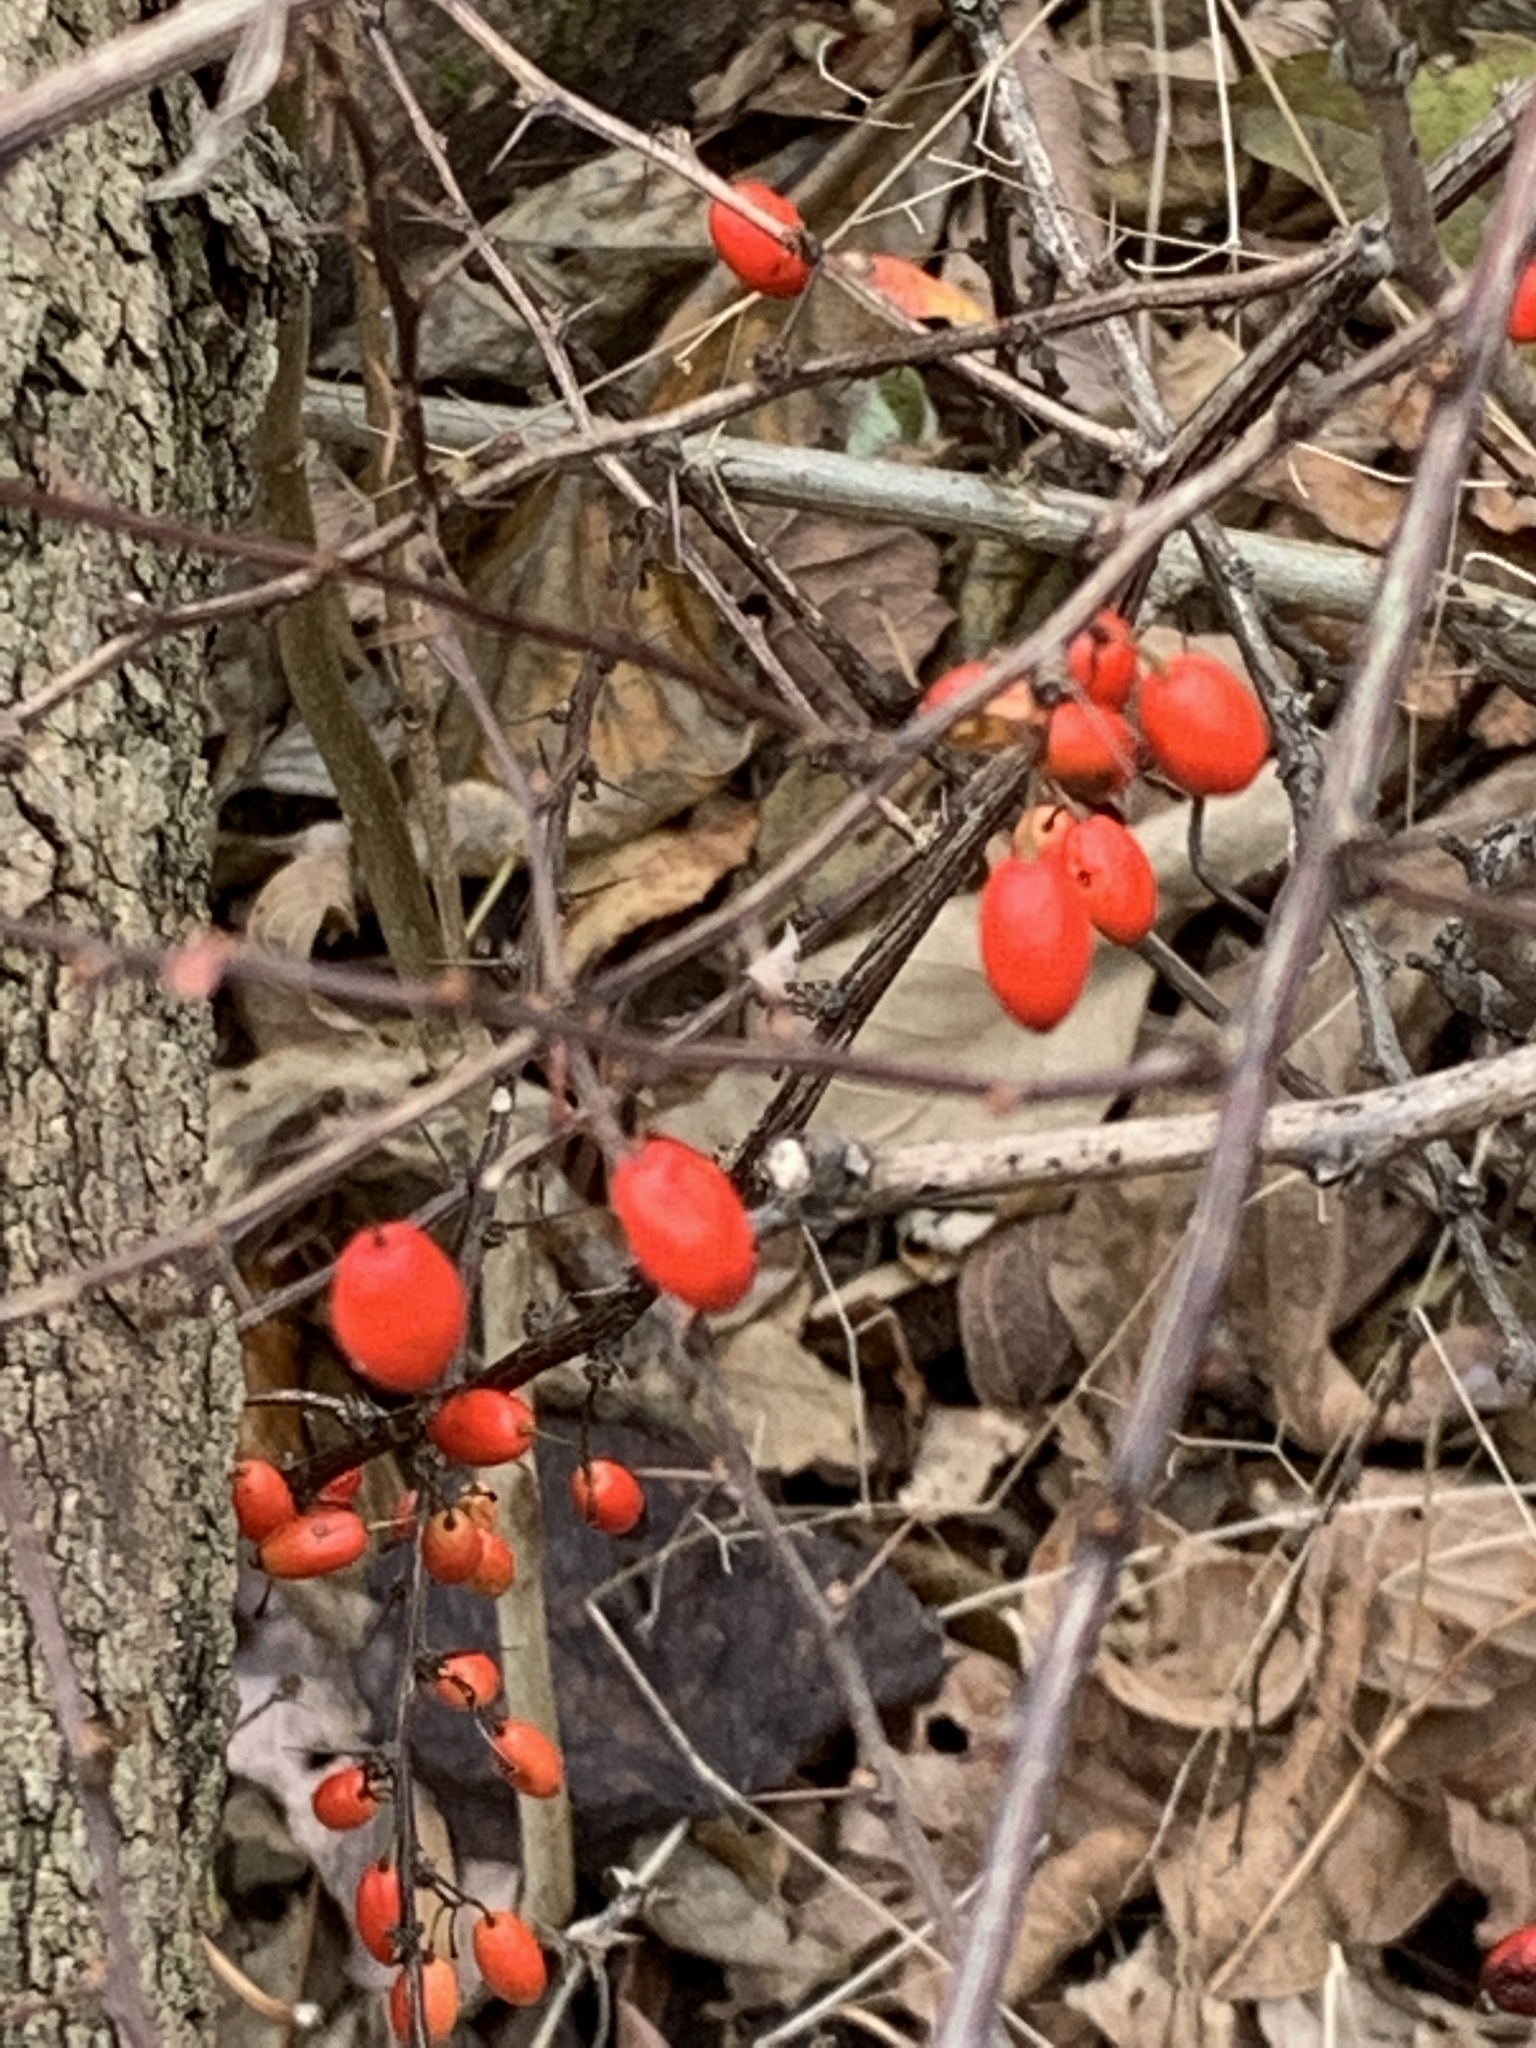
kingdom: Plantae
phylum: Tracheophyta
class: Magnoliopsida
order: Ranunculales
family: Berberidaceae
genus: Berberis
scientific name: Berberis thunbergii
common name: Japanese barberry
